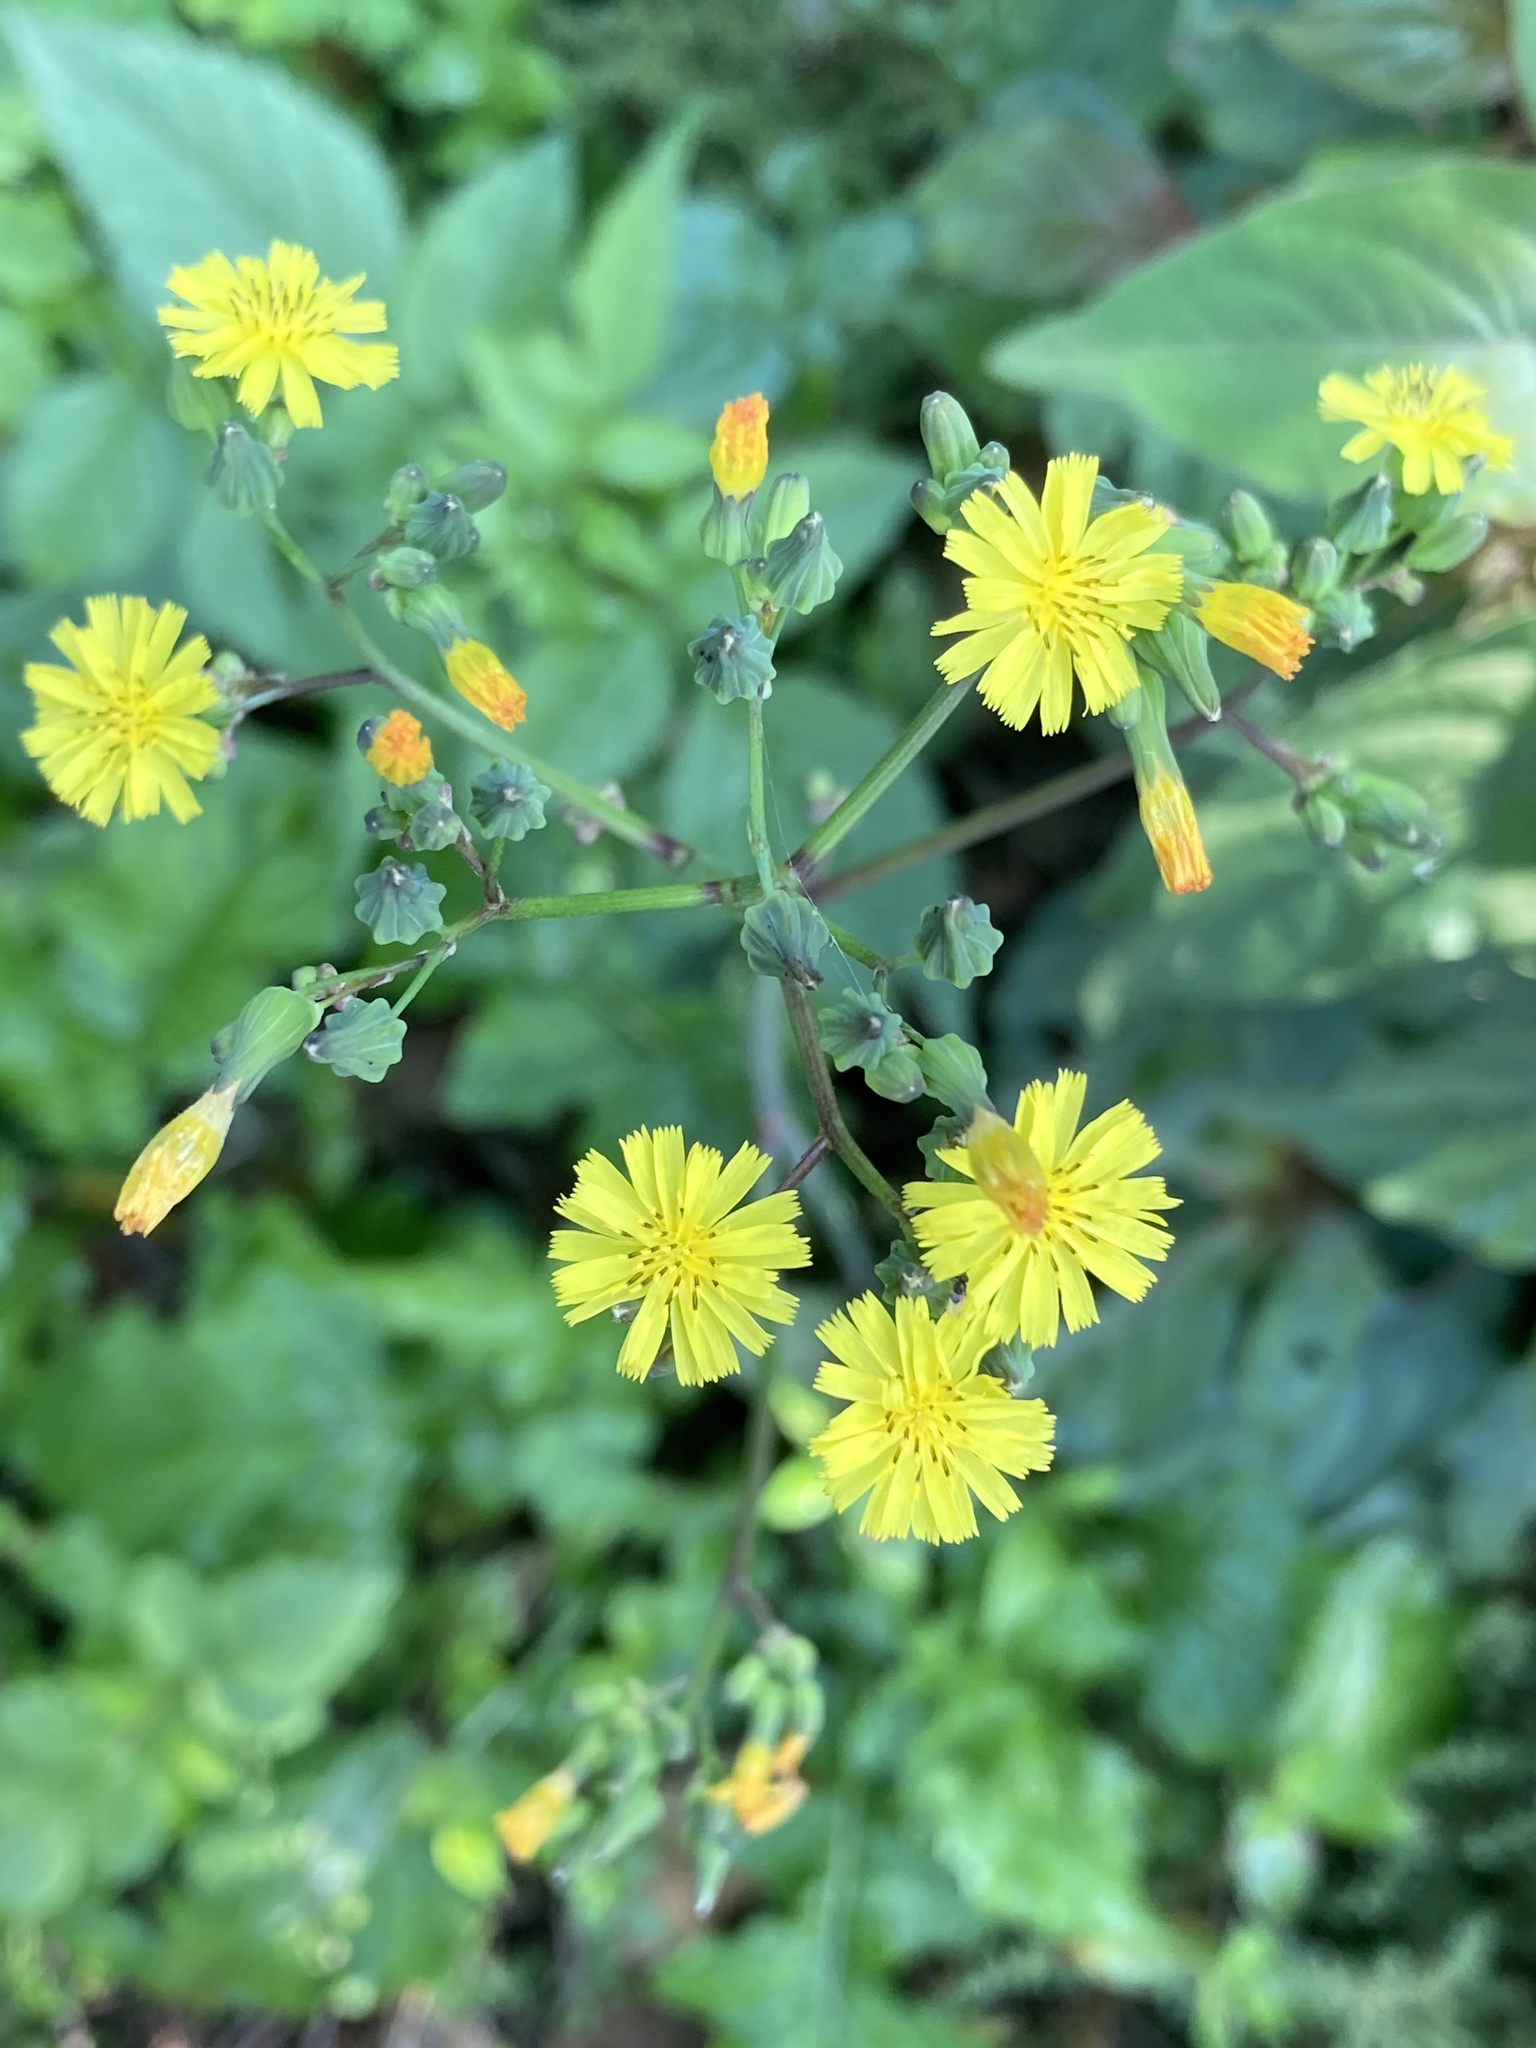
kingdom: Plantae
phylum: Tracheophyta
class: Magnoliopsida
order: Asterales
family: Asteraceae
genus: Youngia
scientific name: Youngia japonica
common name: Oriental false hawksbeard
